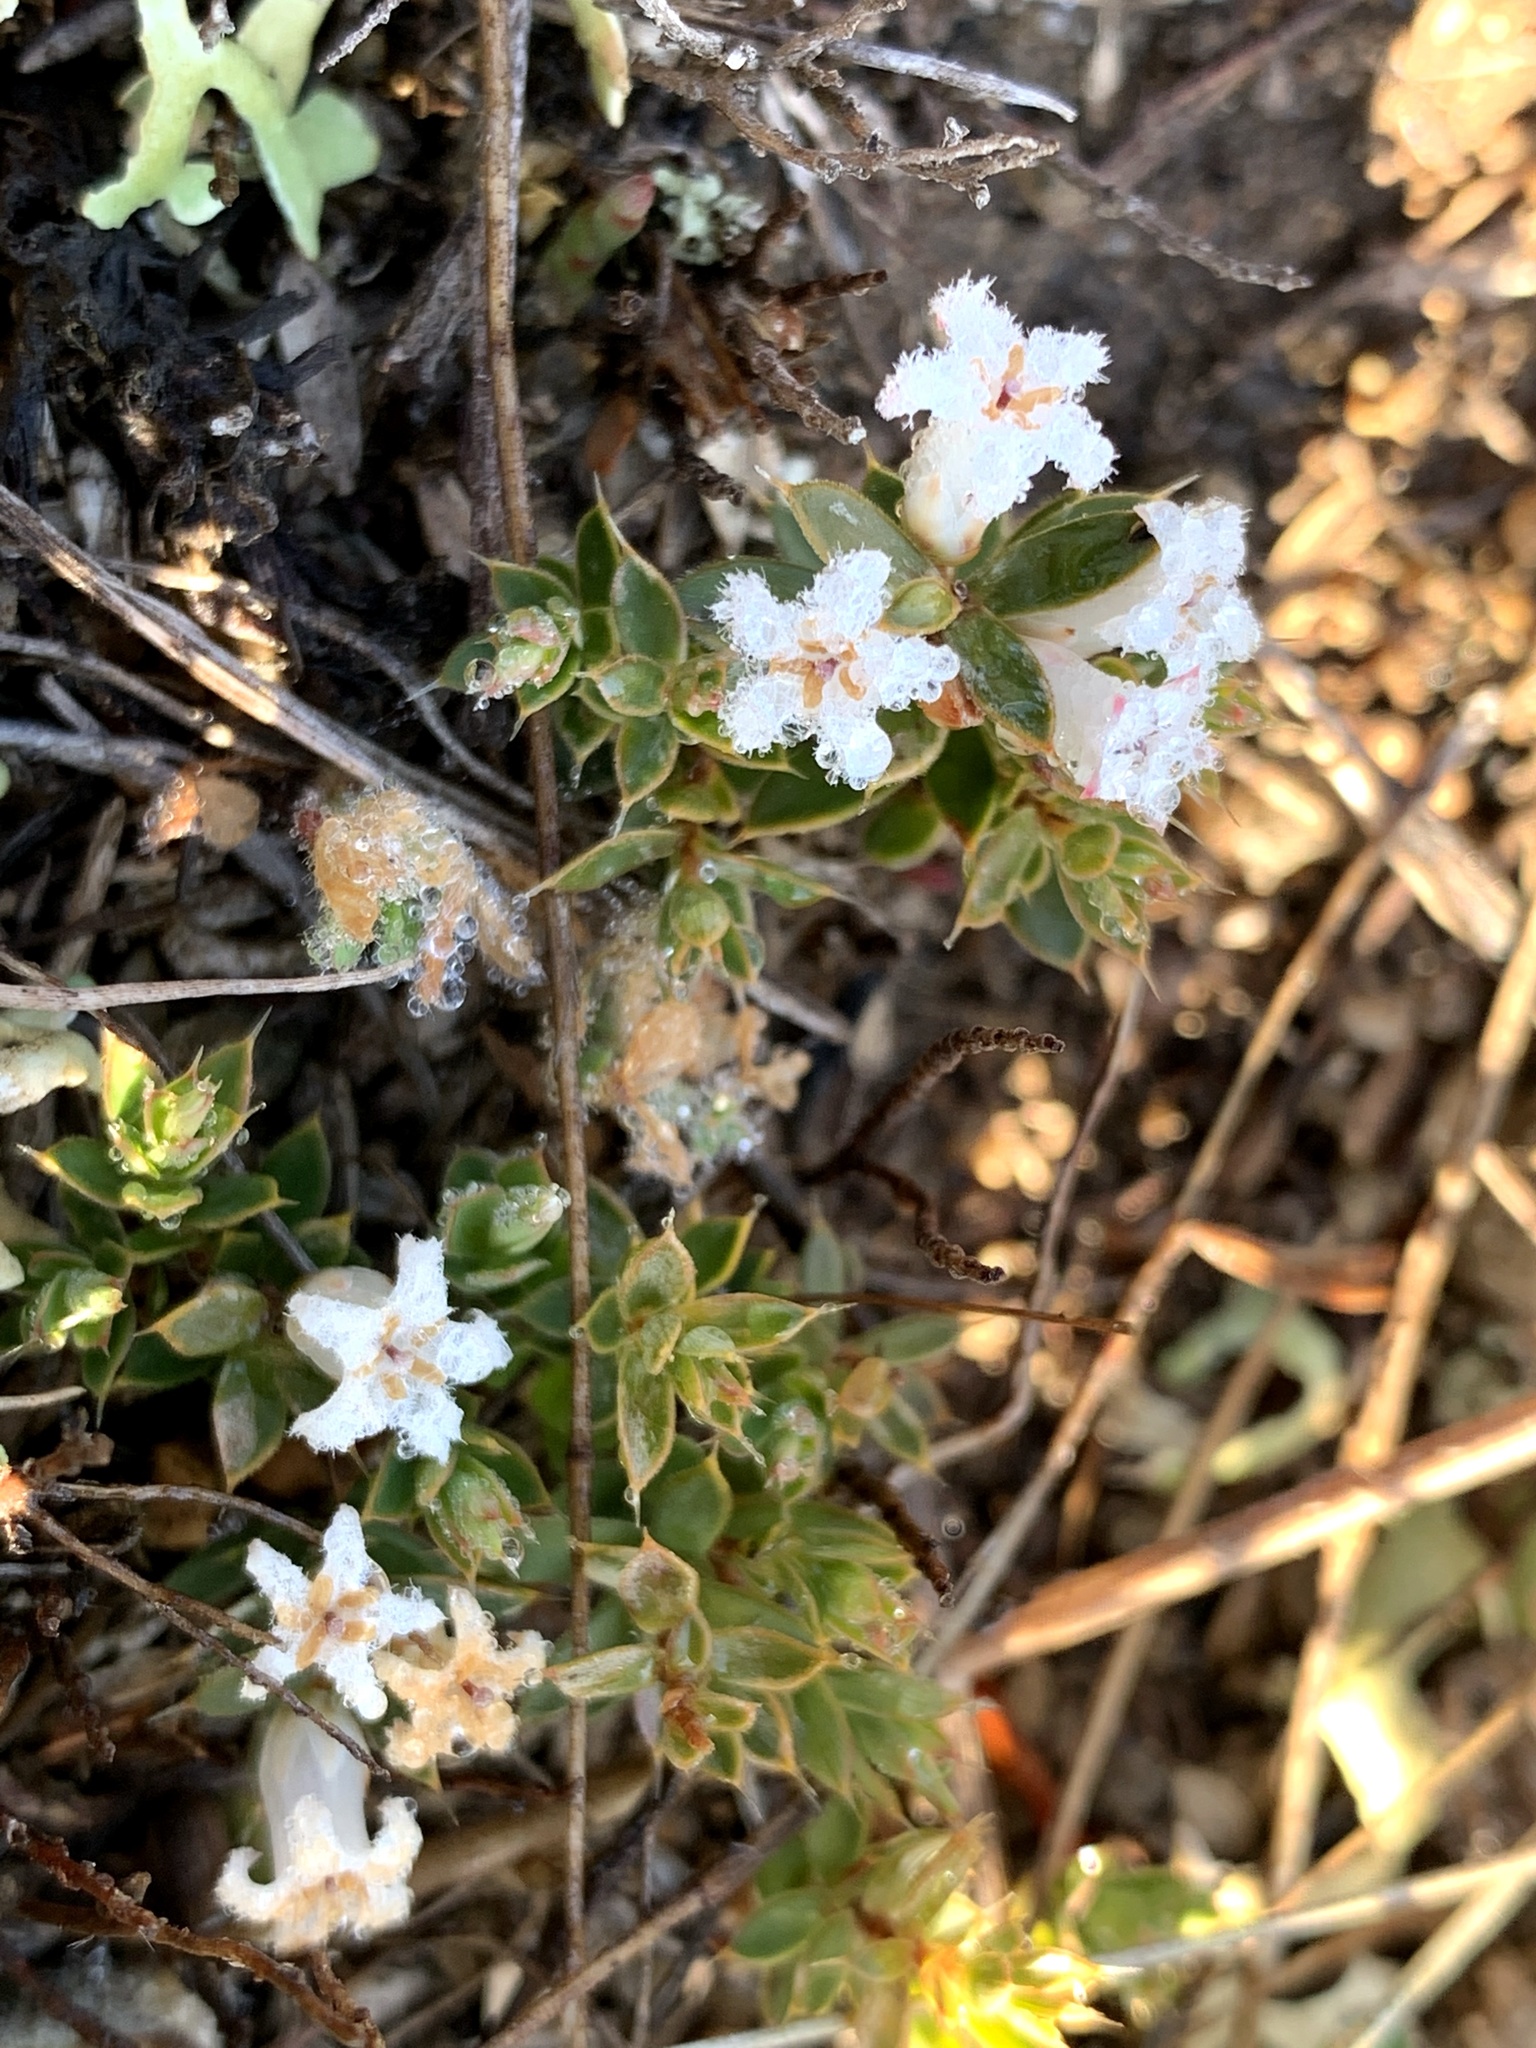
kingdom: Plantae
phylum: Tracheophyta
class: Magnoliopsida
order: Ericales
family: Ericaceae
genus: Styphelia
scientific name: Styphelia nesophila
